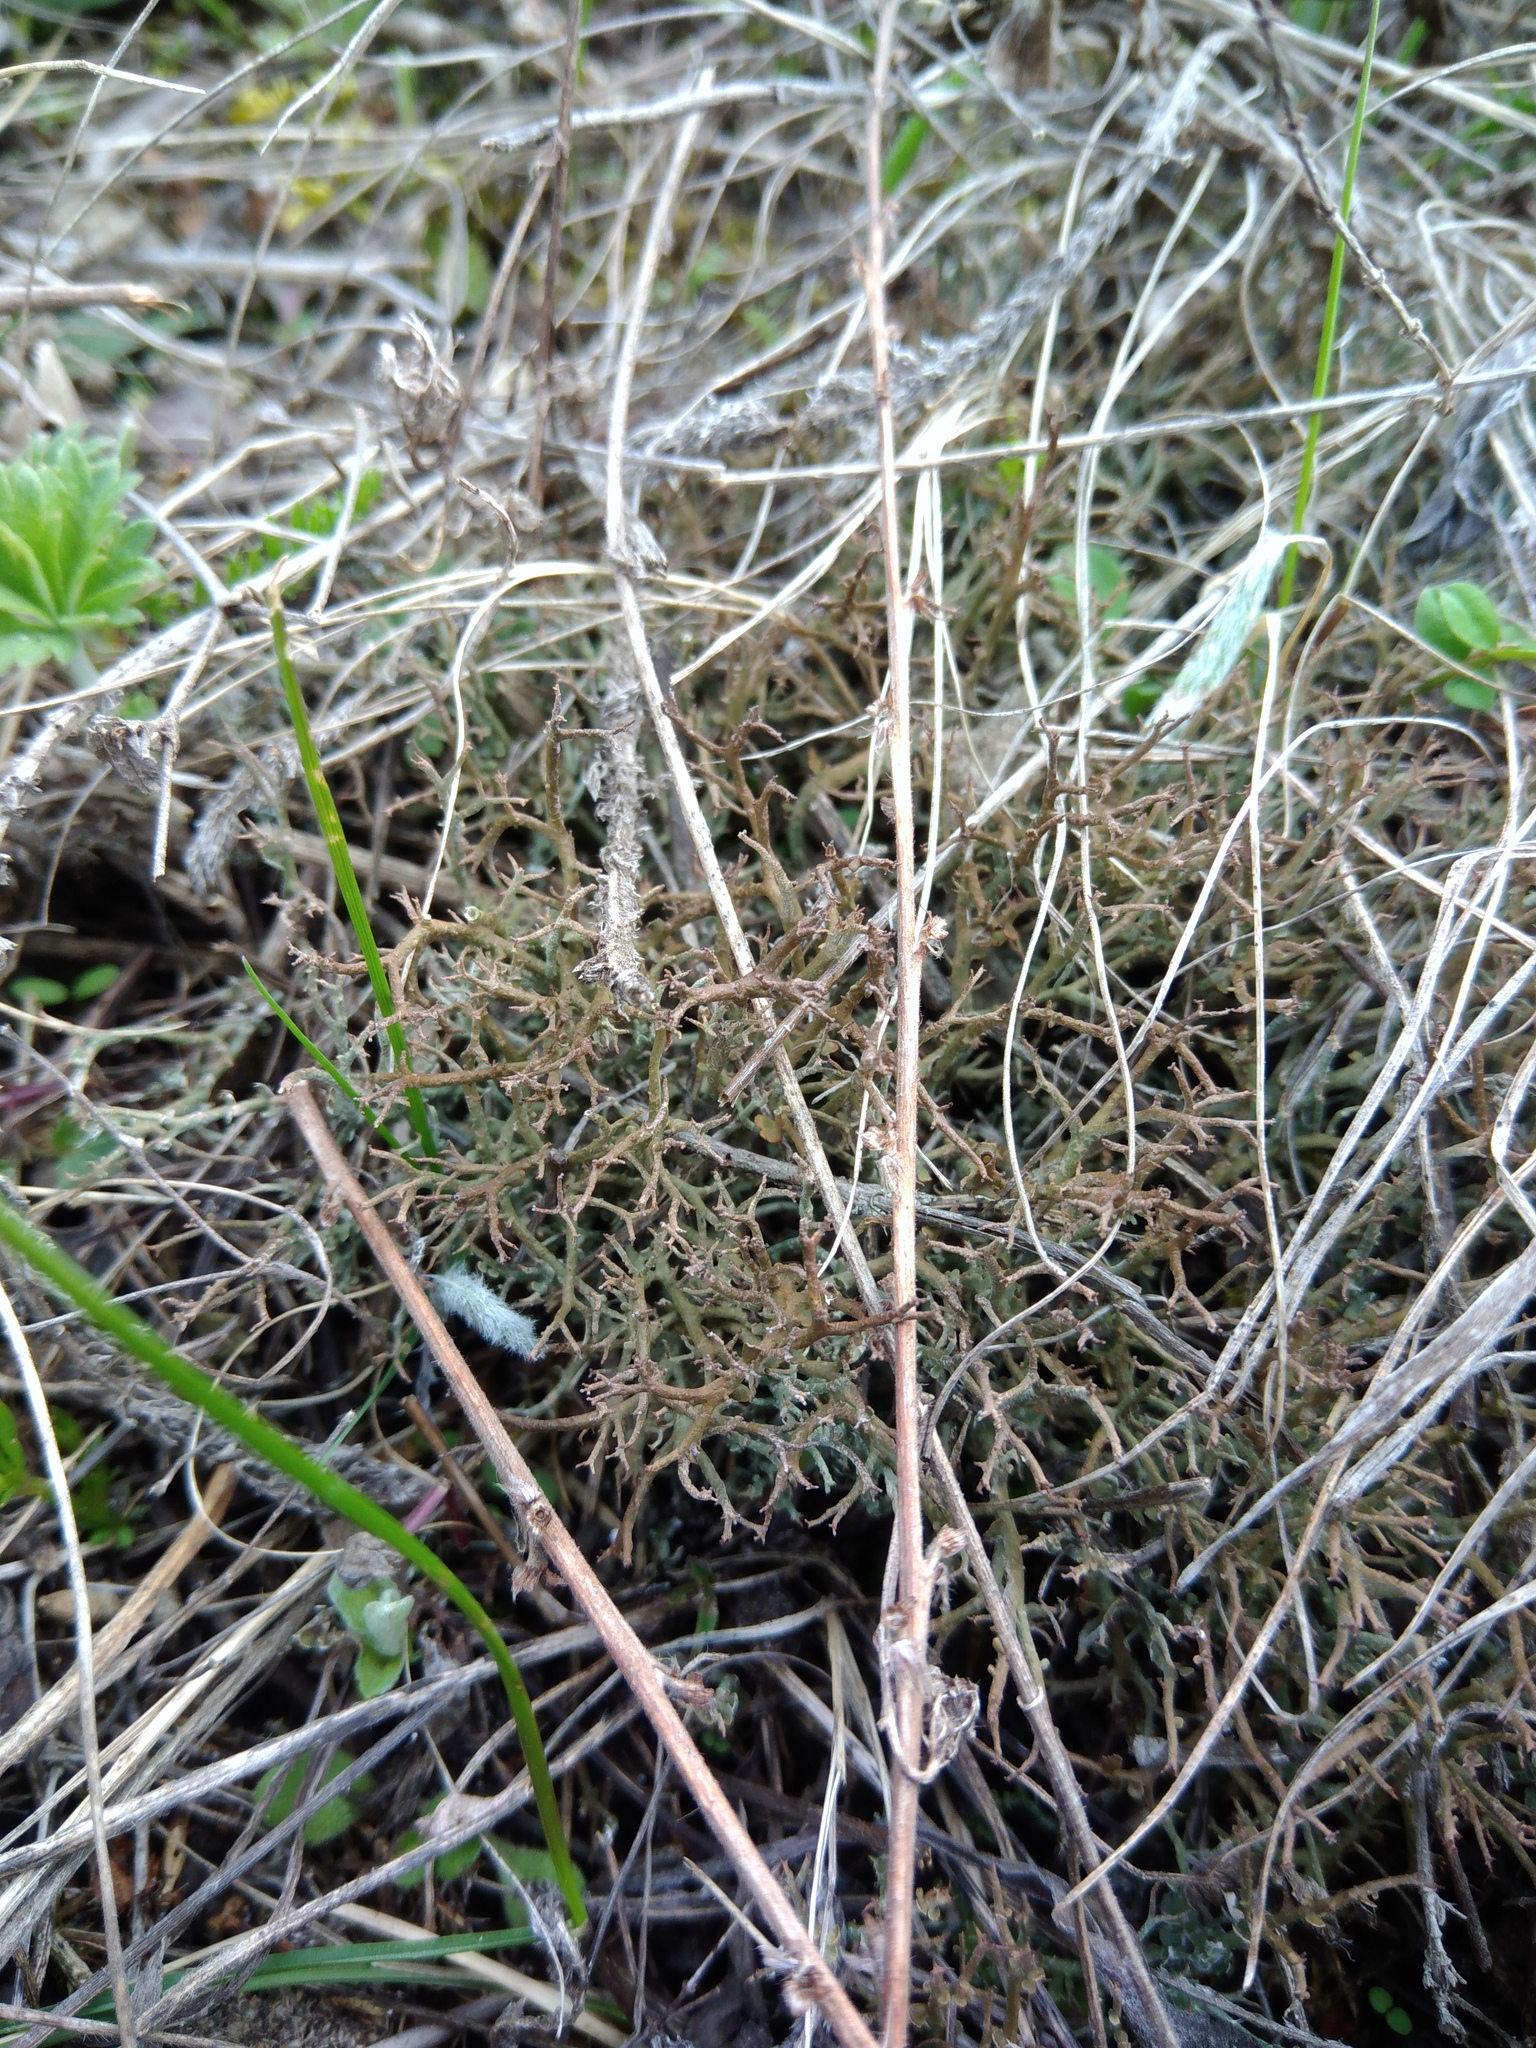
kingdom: Fungi
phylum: Ascomycota
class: Lecanoromycetes
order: Lecanorales
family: Cladoniaceae
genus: Cladonia
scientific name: Cladonia furcata
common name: Many-forked cladonia
